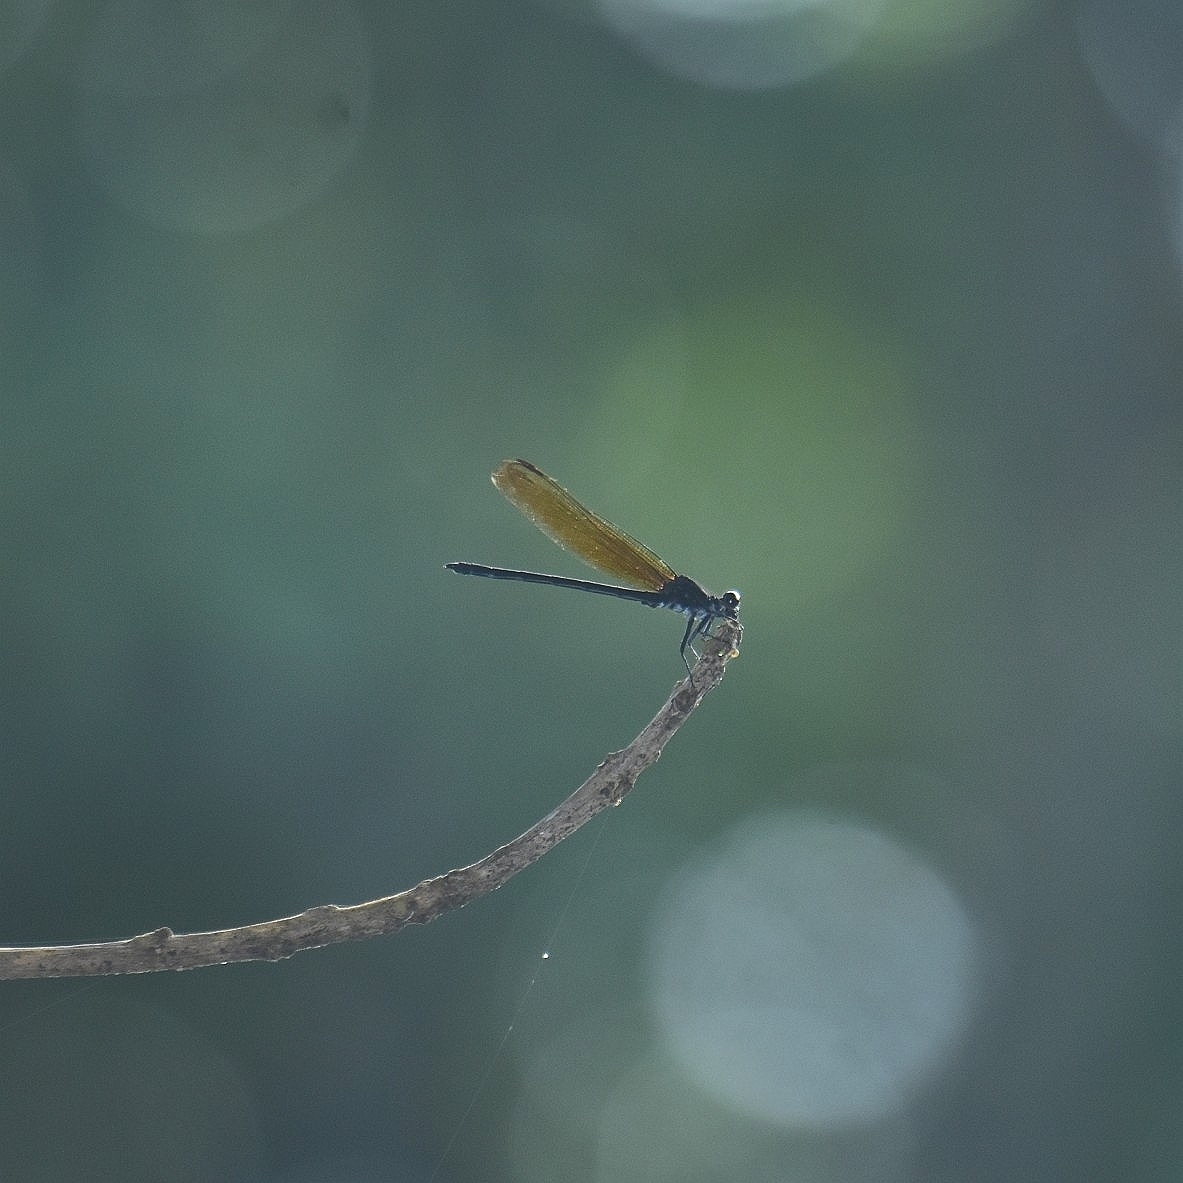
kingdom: Animalia
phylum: Arthropoda
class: Insecta
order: Odonata
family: Euphaeidae
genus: Dysphaea
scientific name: Dysphaea ethela
